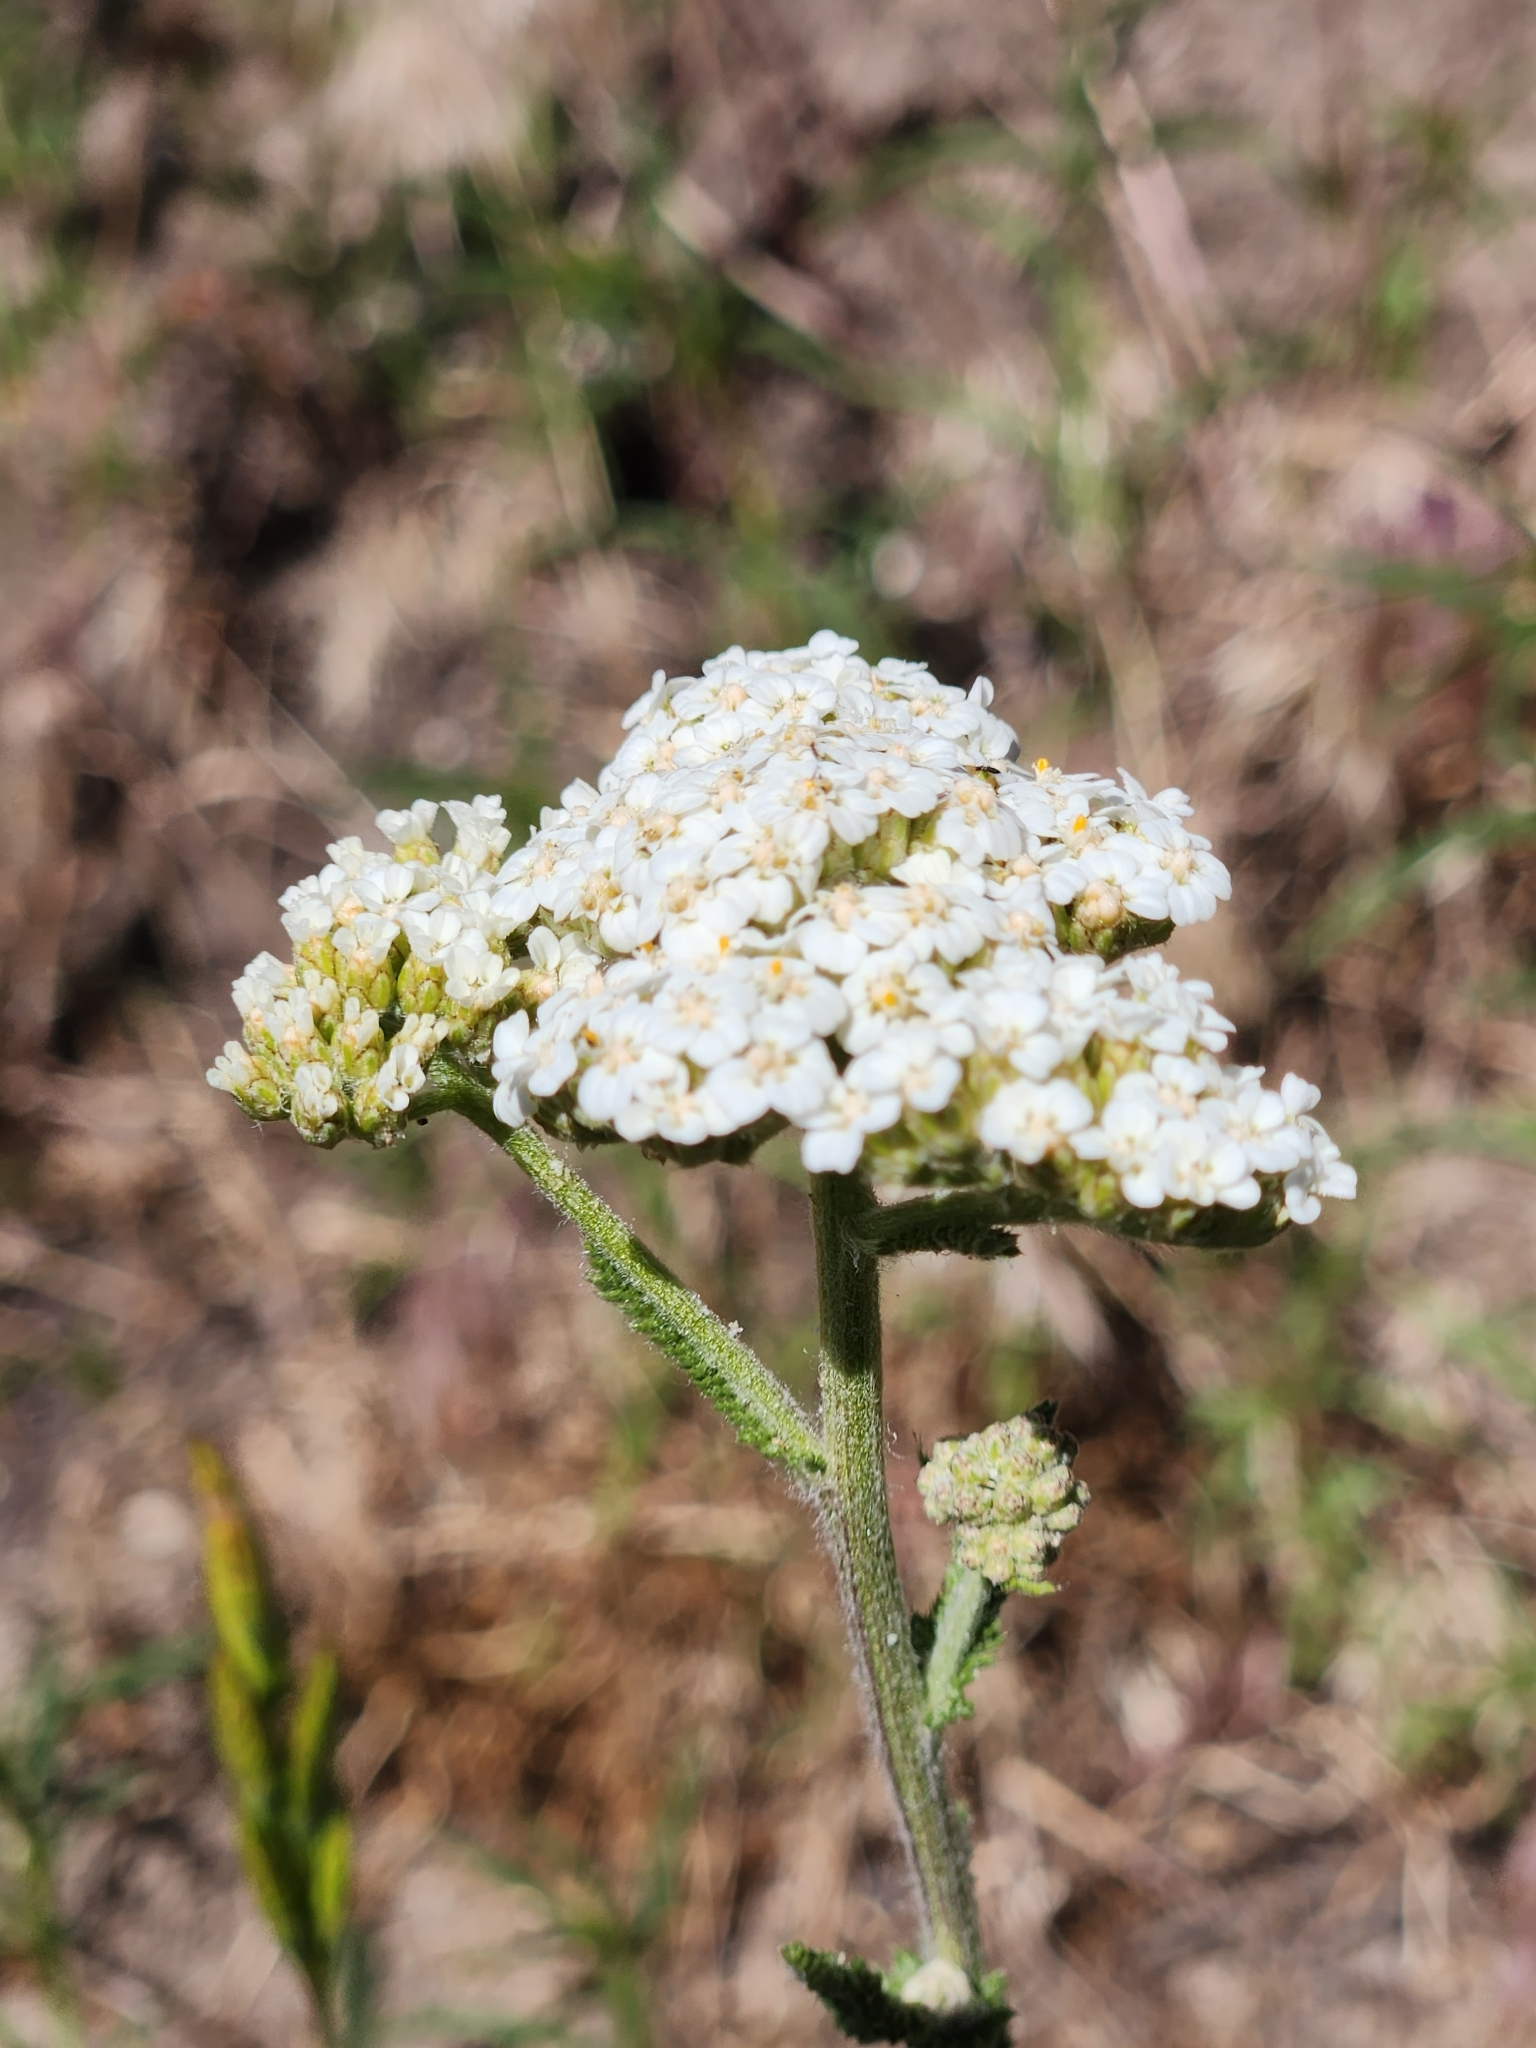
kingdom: Plantae
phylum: Tracheophyta
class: Magnoliopsida
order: Asterales
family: Asteraceae
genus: Achillea
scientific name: Achillea millefolium
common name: Yarrow
